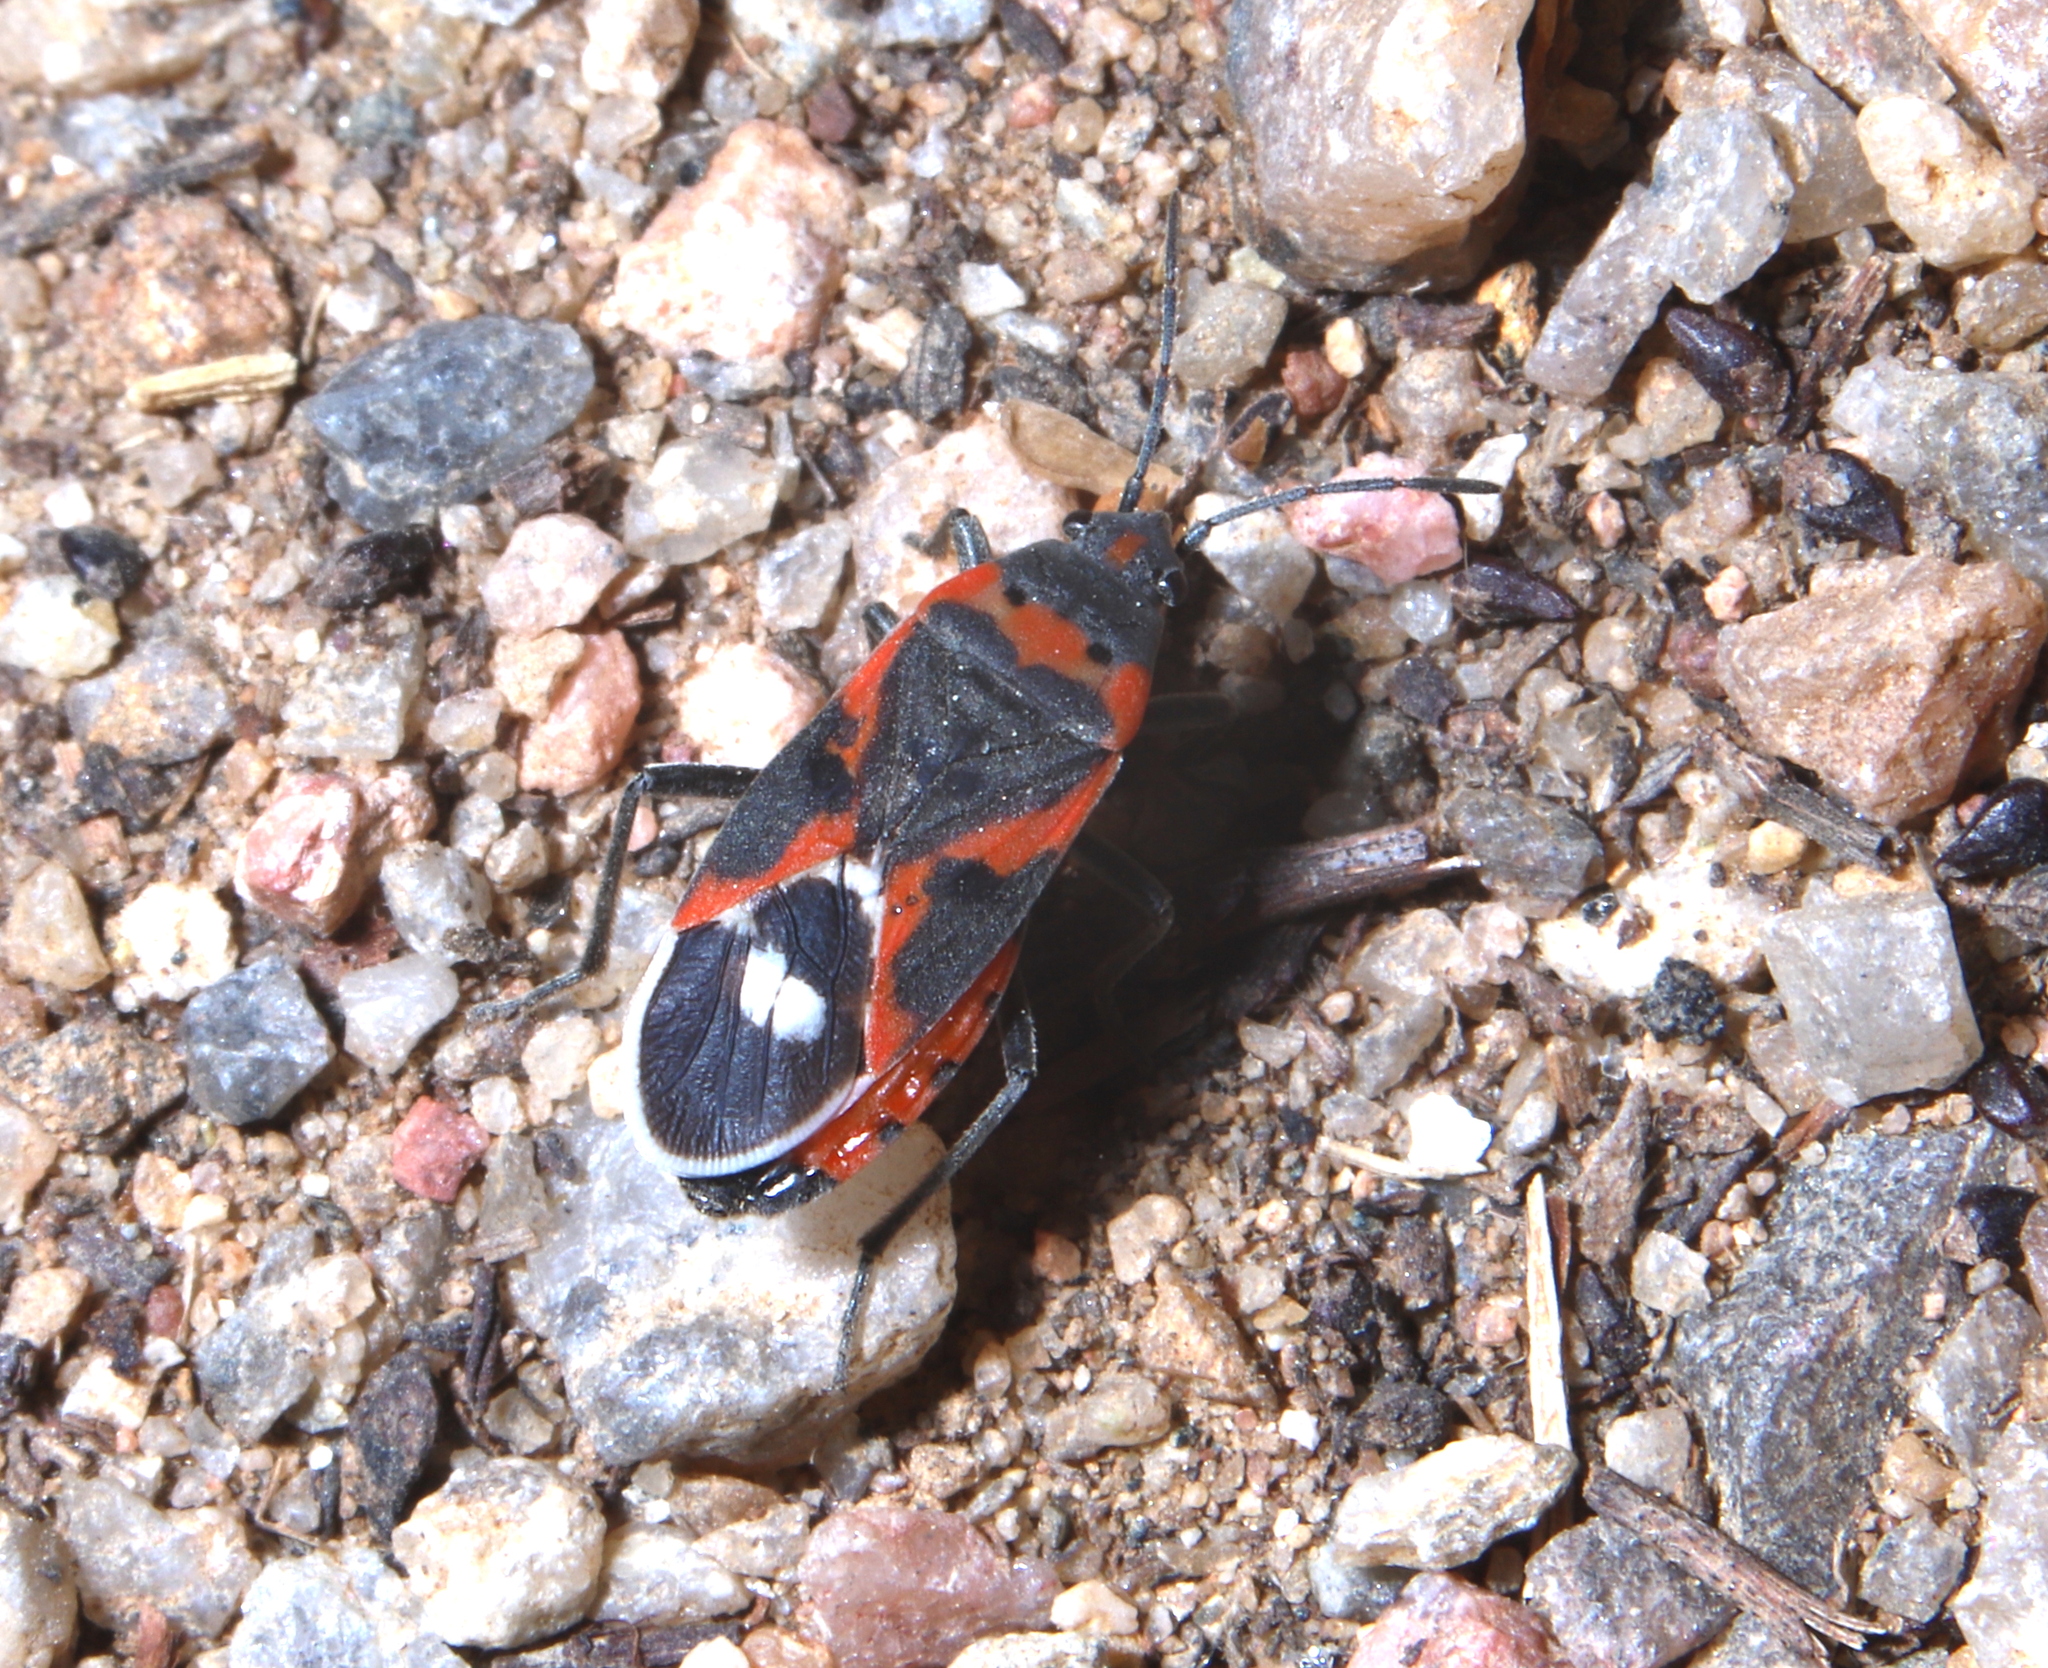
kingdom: Animalia
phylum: Arthropoda
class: Insecta
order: Hemiptera
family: Lygaeidae
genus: Lygaeus
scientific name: Lygaeus kalmii
